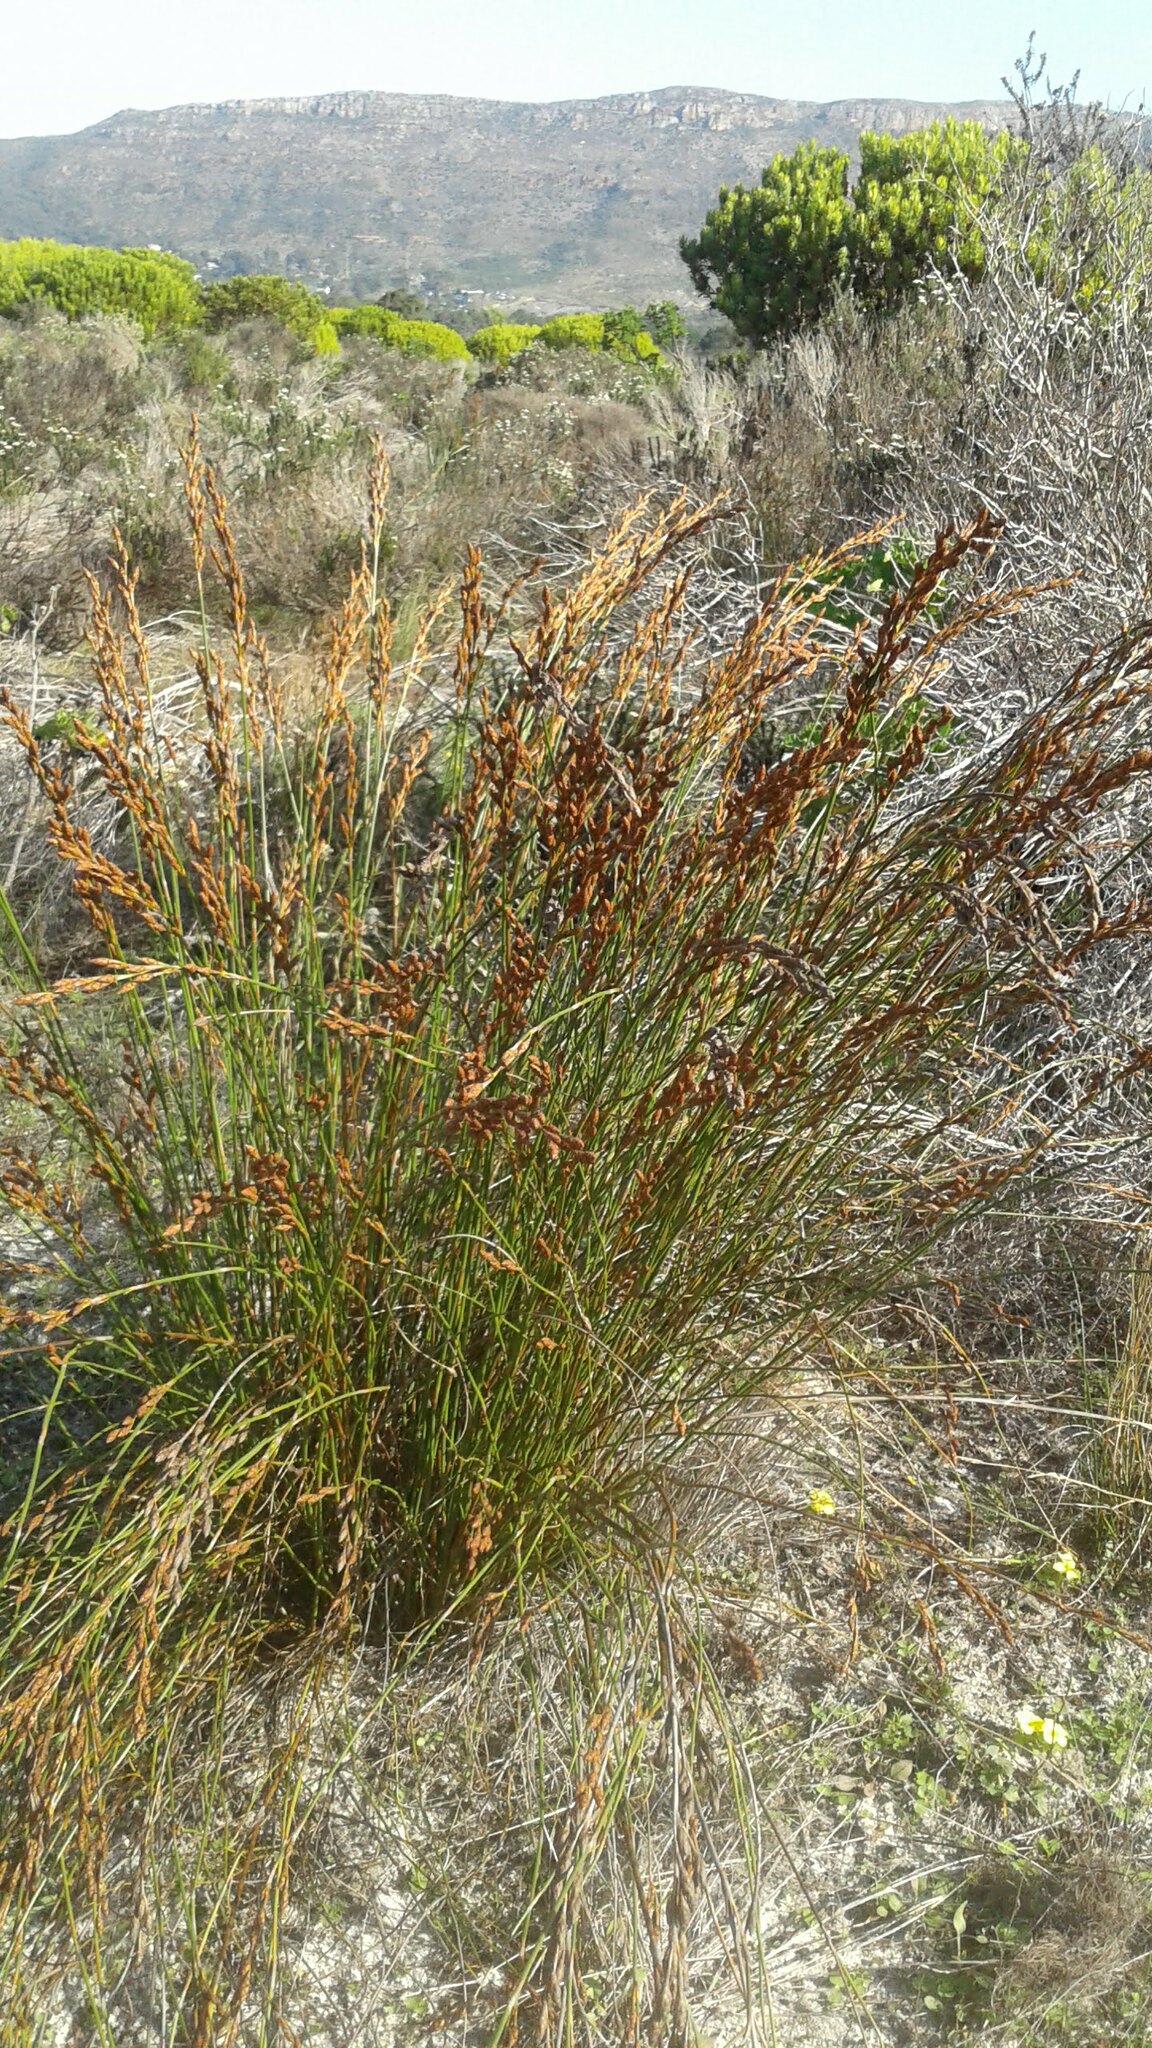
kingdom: Plantae
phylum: Tracheophyta
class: Liliopsida
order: Poales
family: Restionaceae
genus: Restio
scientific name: Restio bifurcus
